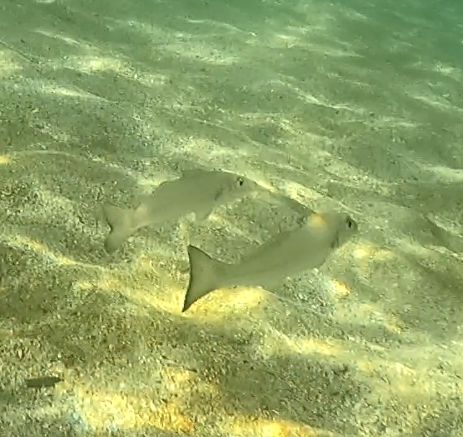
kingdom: Animalia
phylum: Chordata
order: Perciformes
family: Sillaginidae
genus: Sillago
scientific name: Sillago ciliata
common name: Sand sillago
